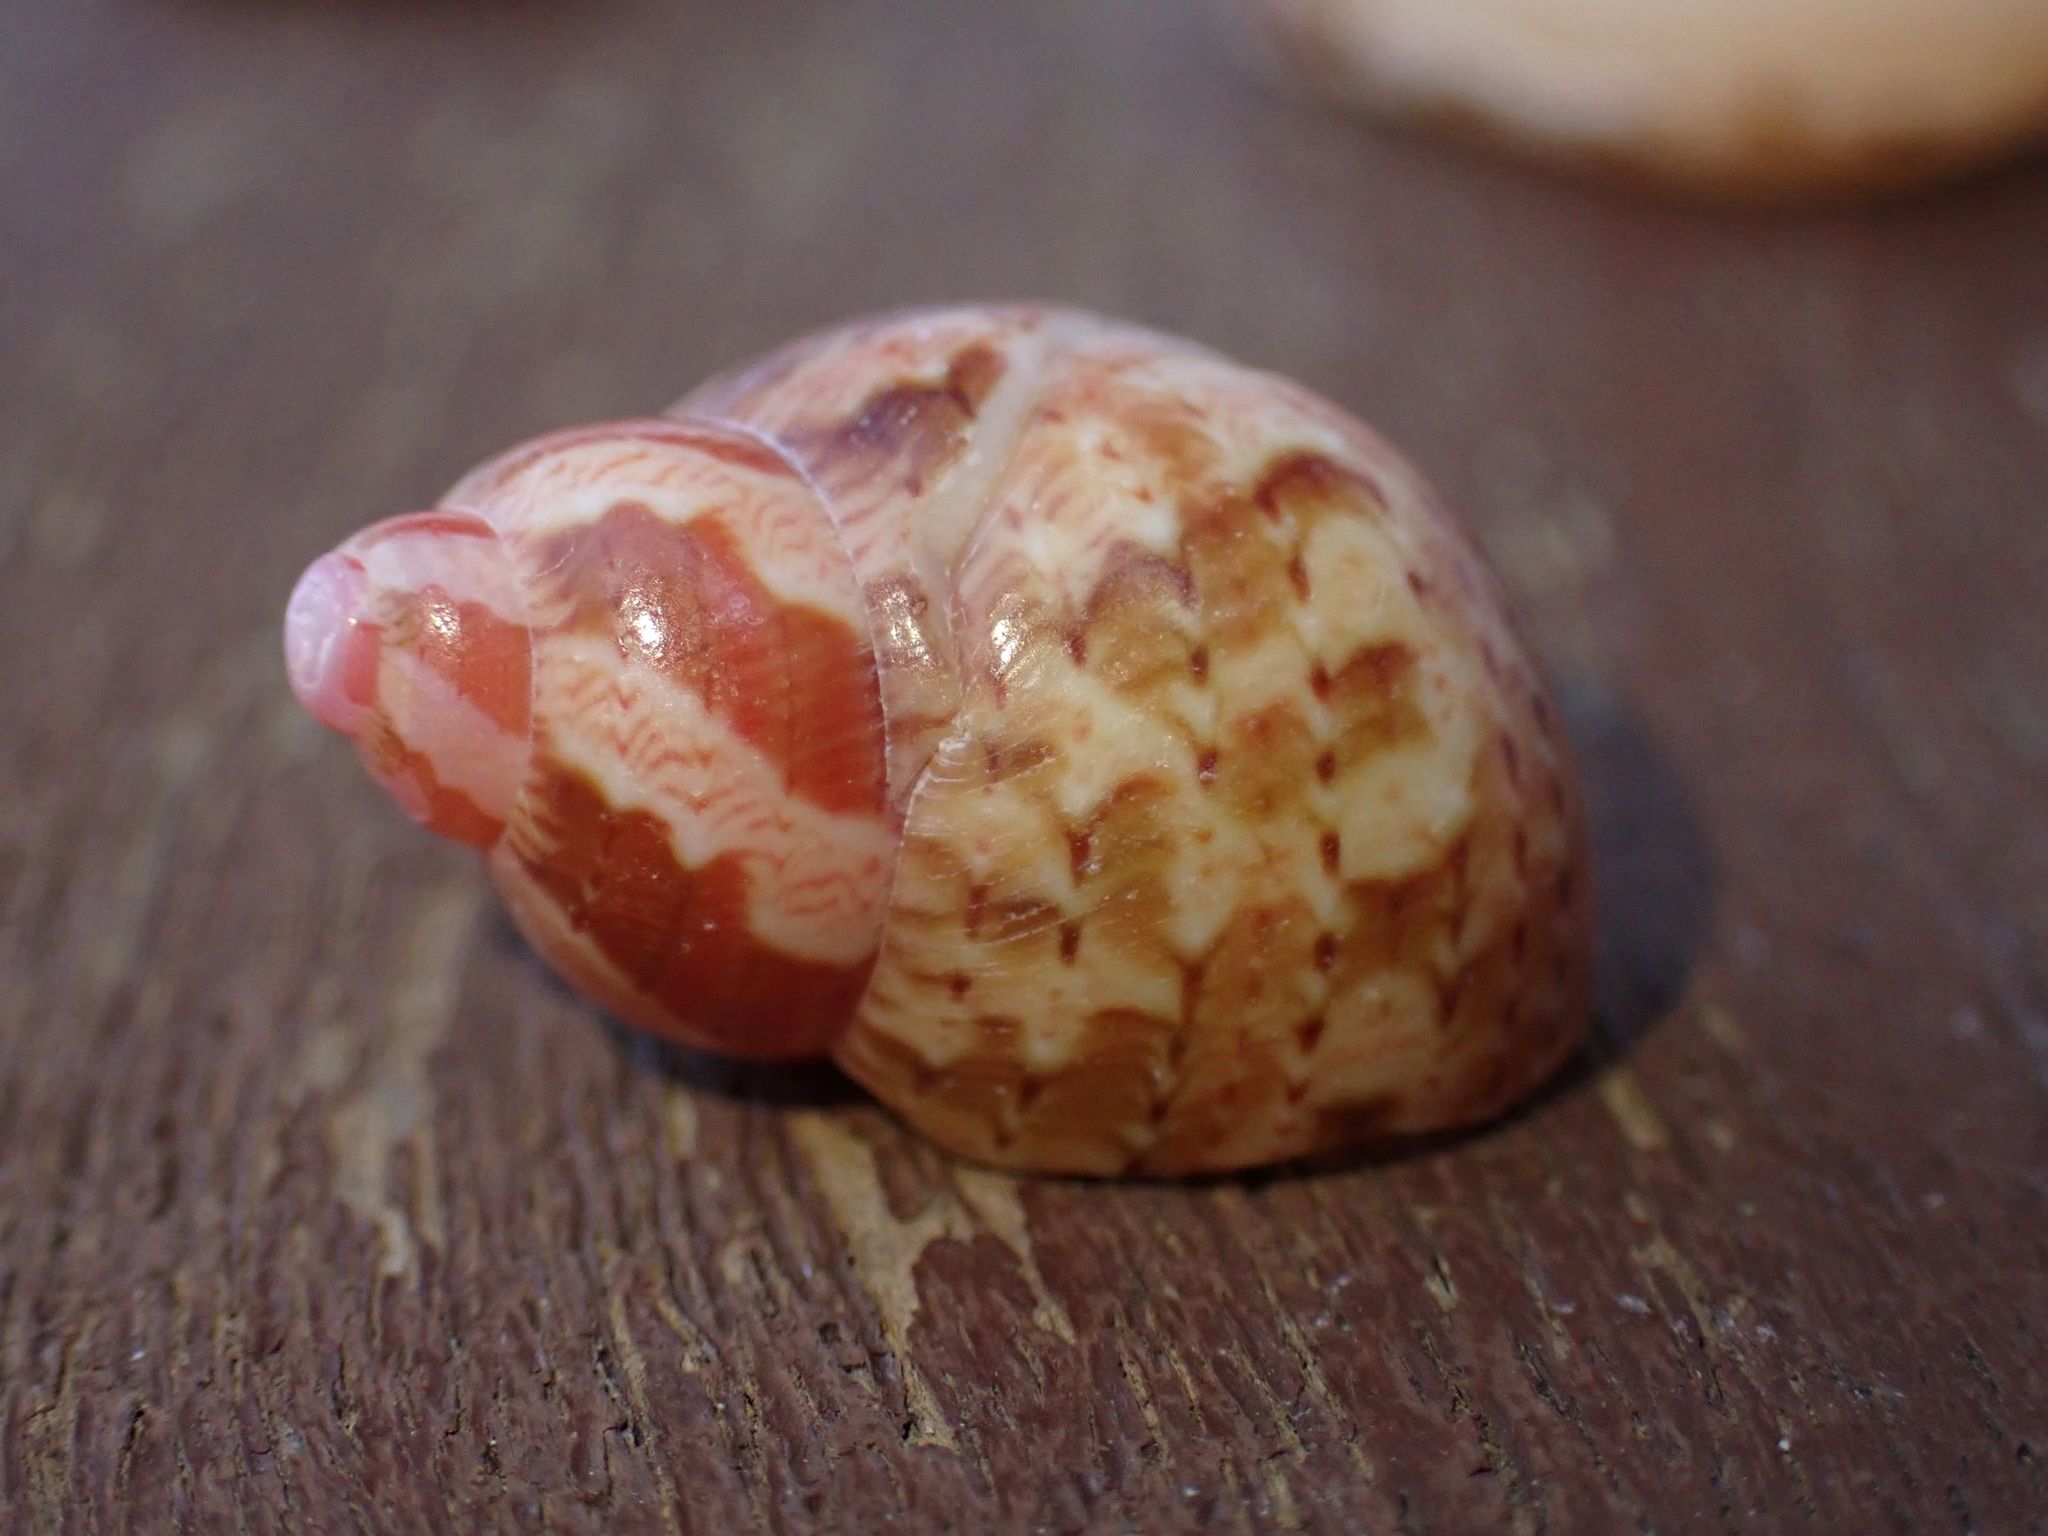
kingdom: Animalia
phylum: Mollusca
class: Gastropoda
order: Trochida
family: Phasianellidae
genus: Phasianella
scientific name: Phasianella ventricosa
